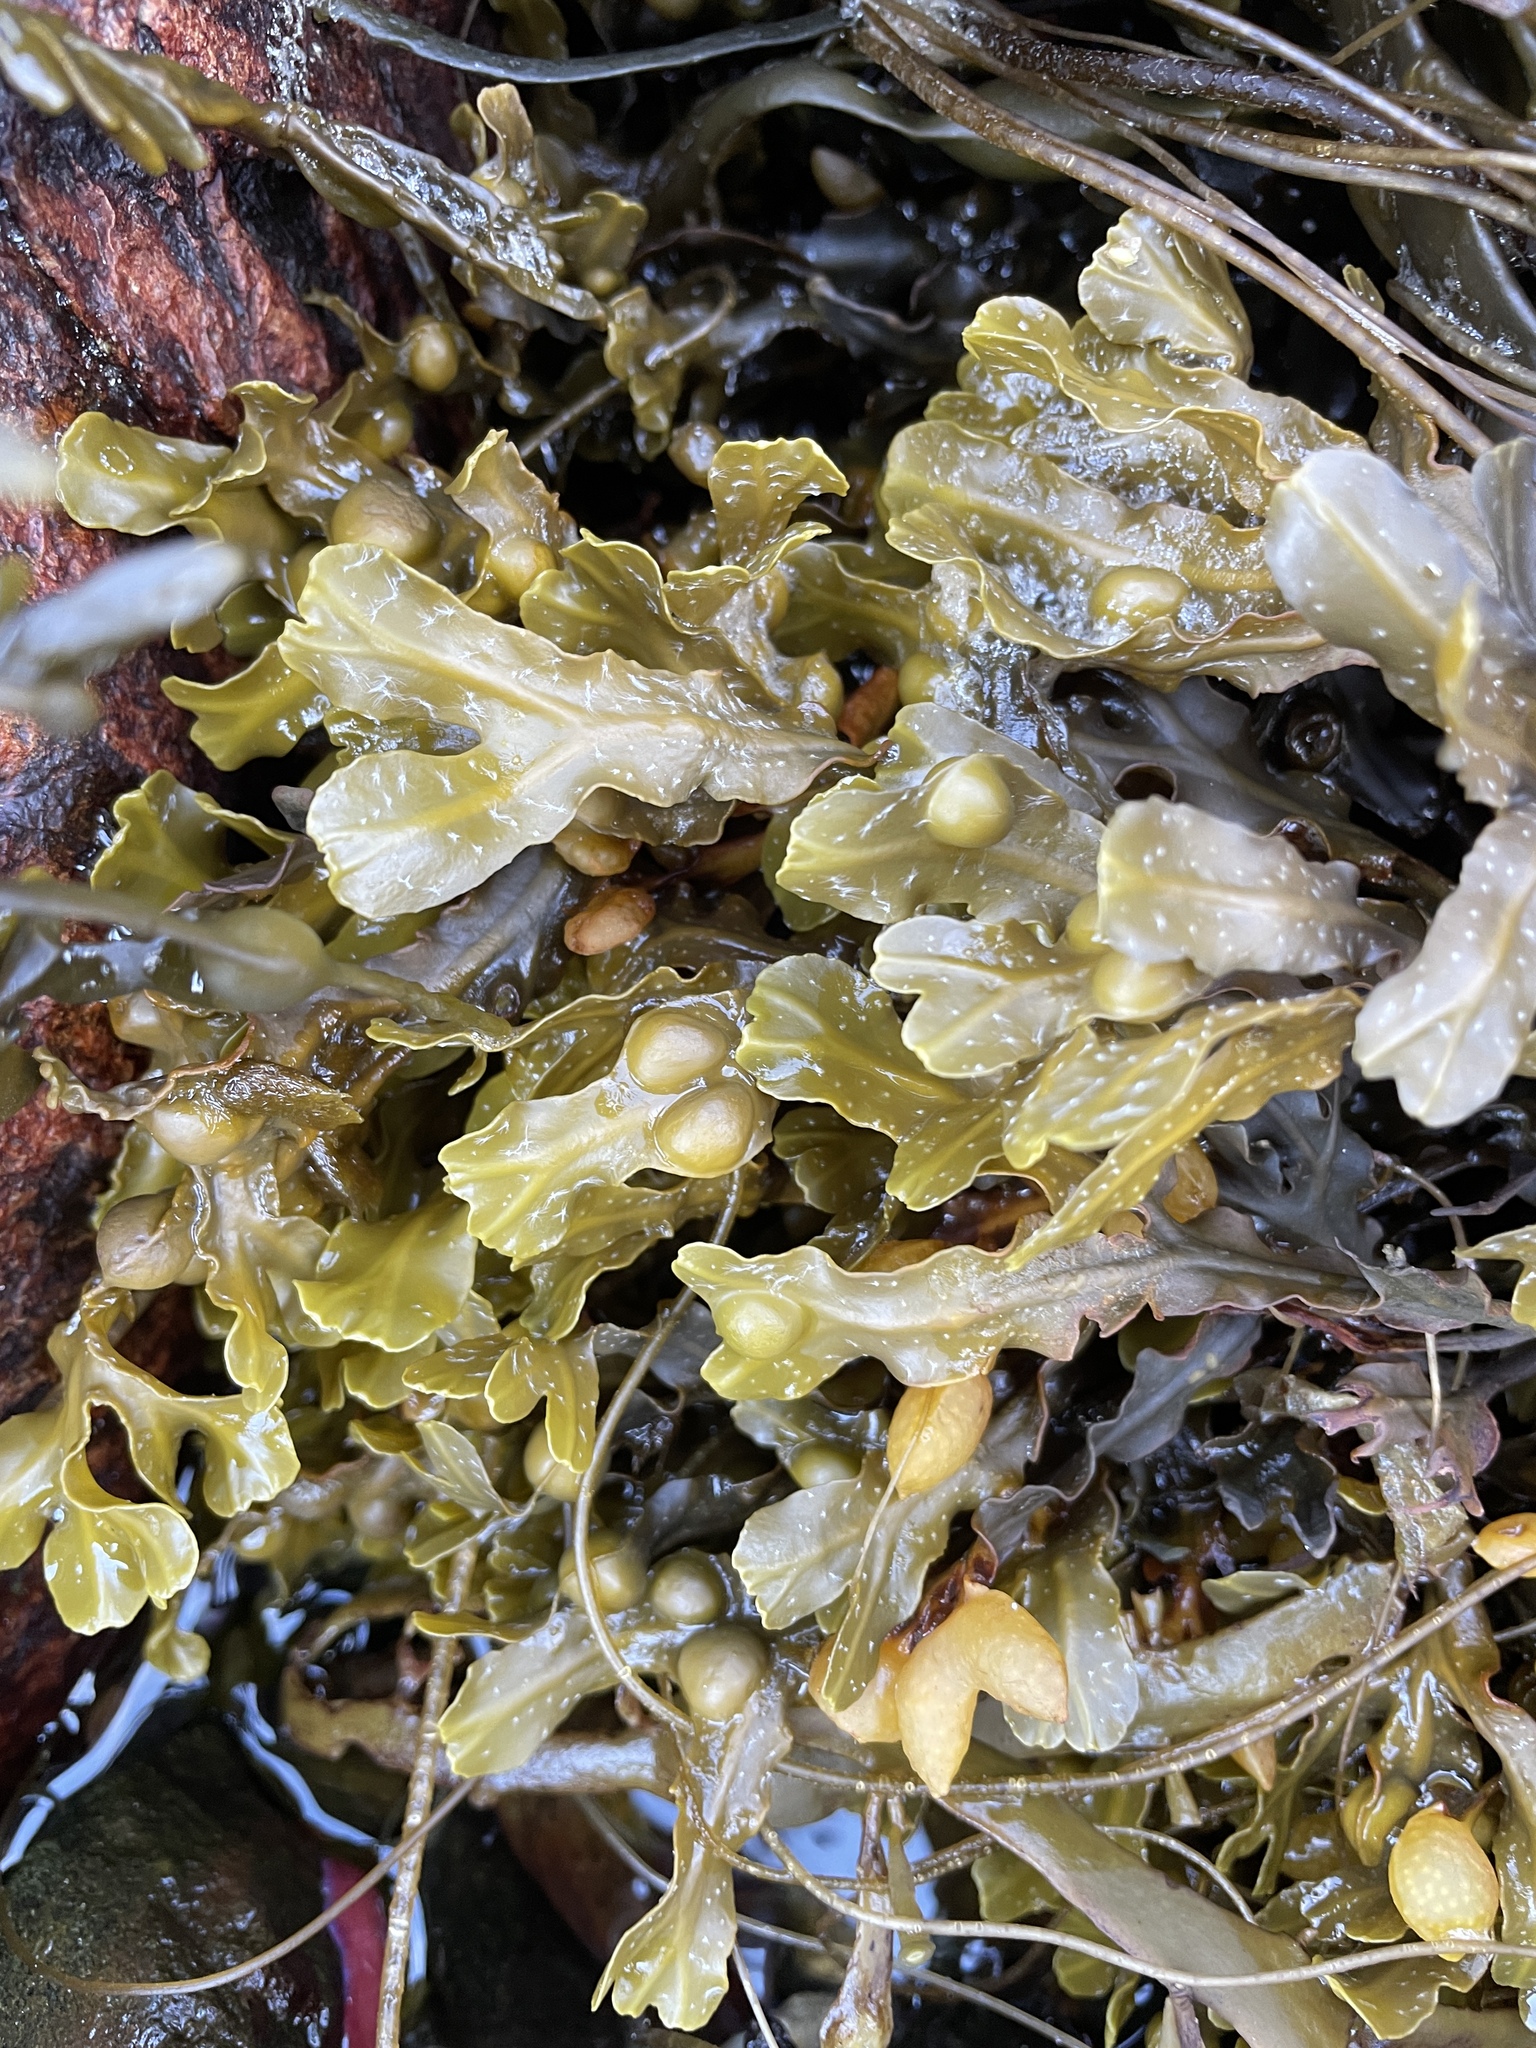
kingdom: Chromista
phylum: Ochrophyta
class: Phaeophyceae
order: Fucales
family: Fucaceae
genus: Fucus
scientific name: Fucus vesiculosus
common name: Bladder wrack
